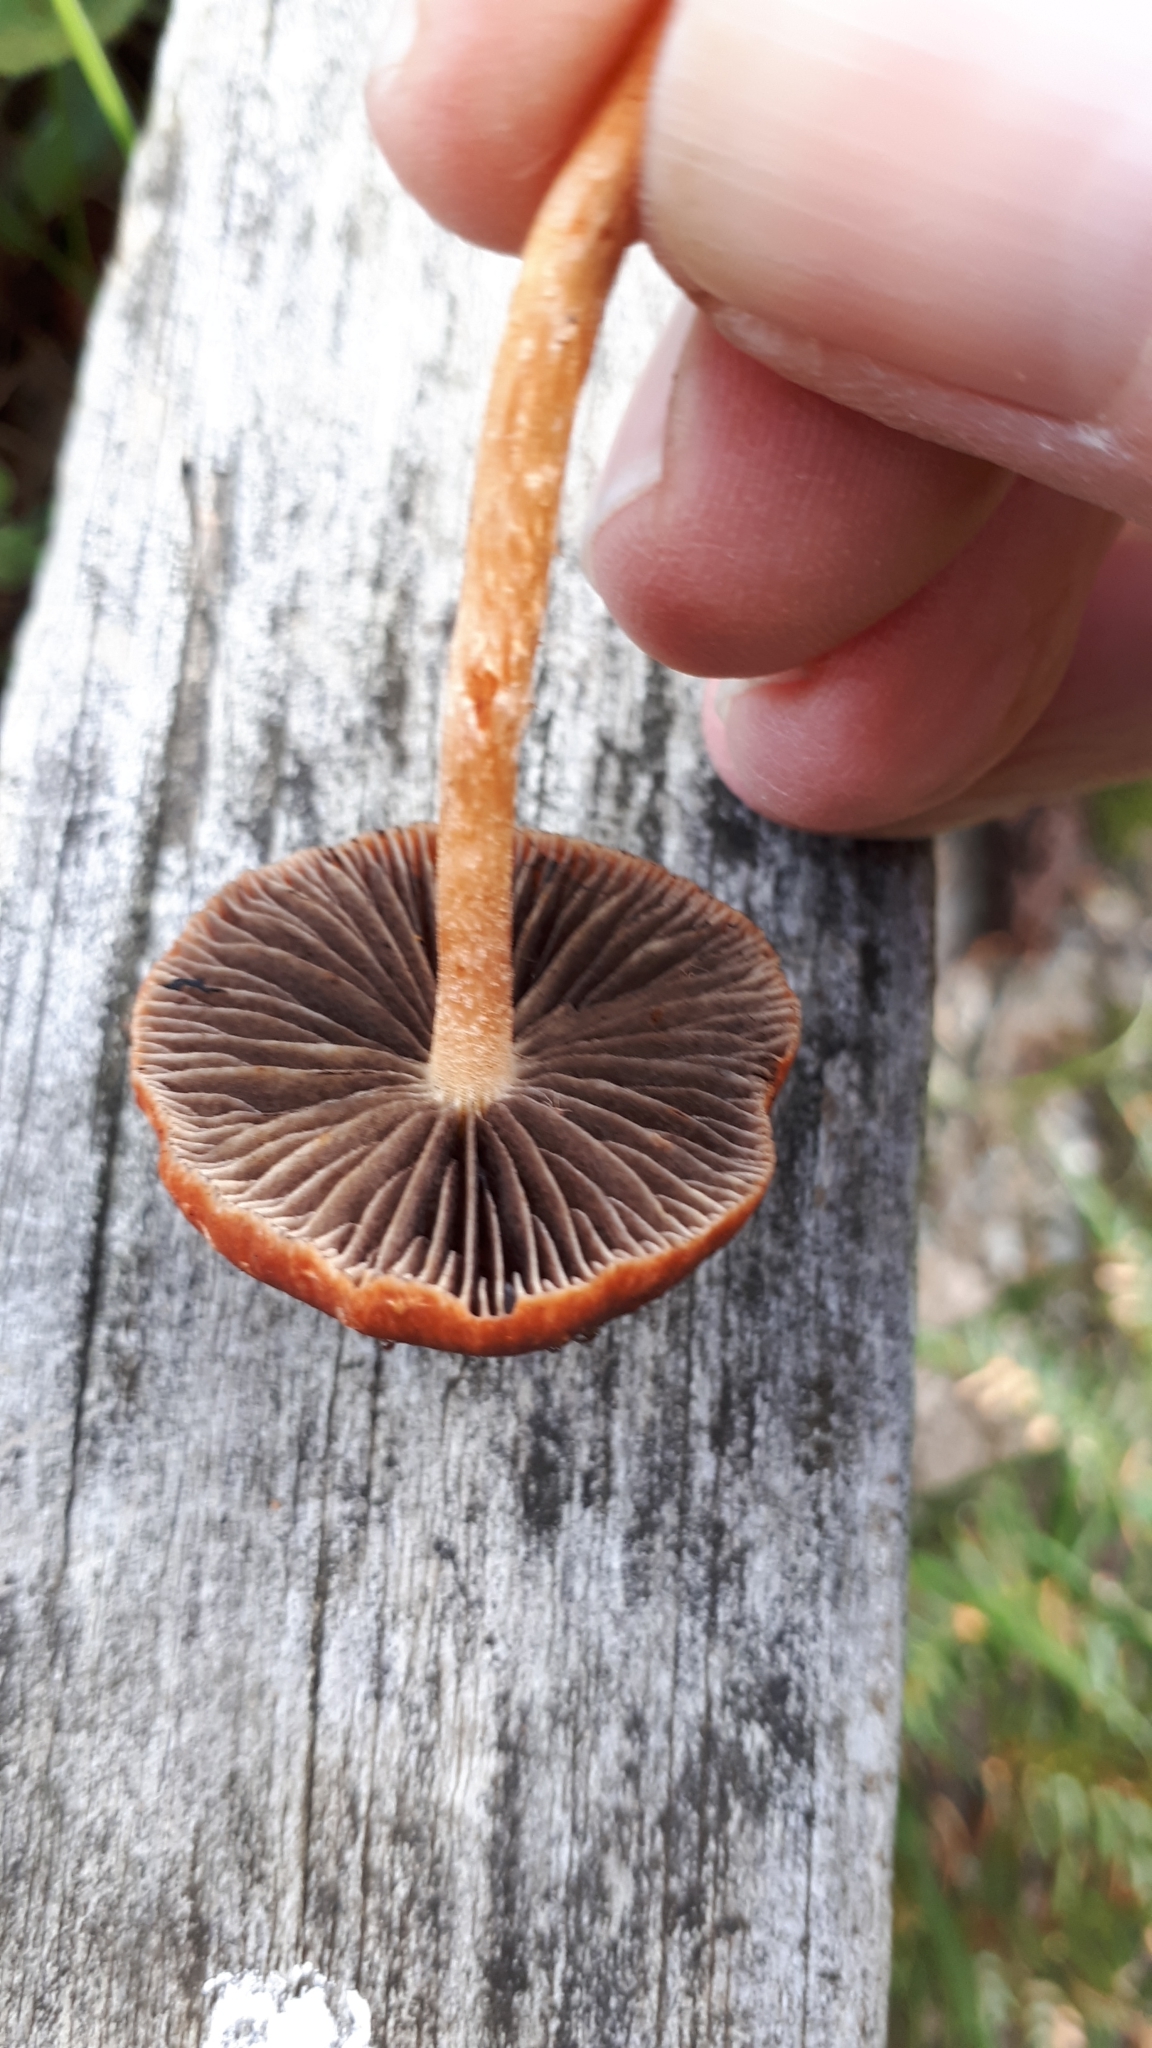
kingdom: Fungi
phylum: Basidiomycota
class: Agaricomycetes
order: Agaricales
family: Strophariaceae
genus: Leratiomyces
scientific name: Leratiomyces ceres
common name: Redlead roundhead
